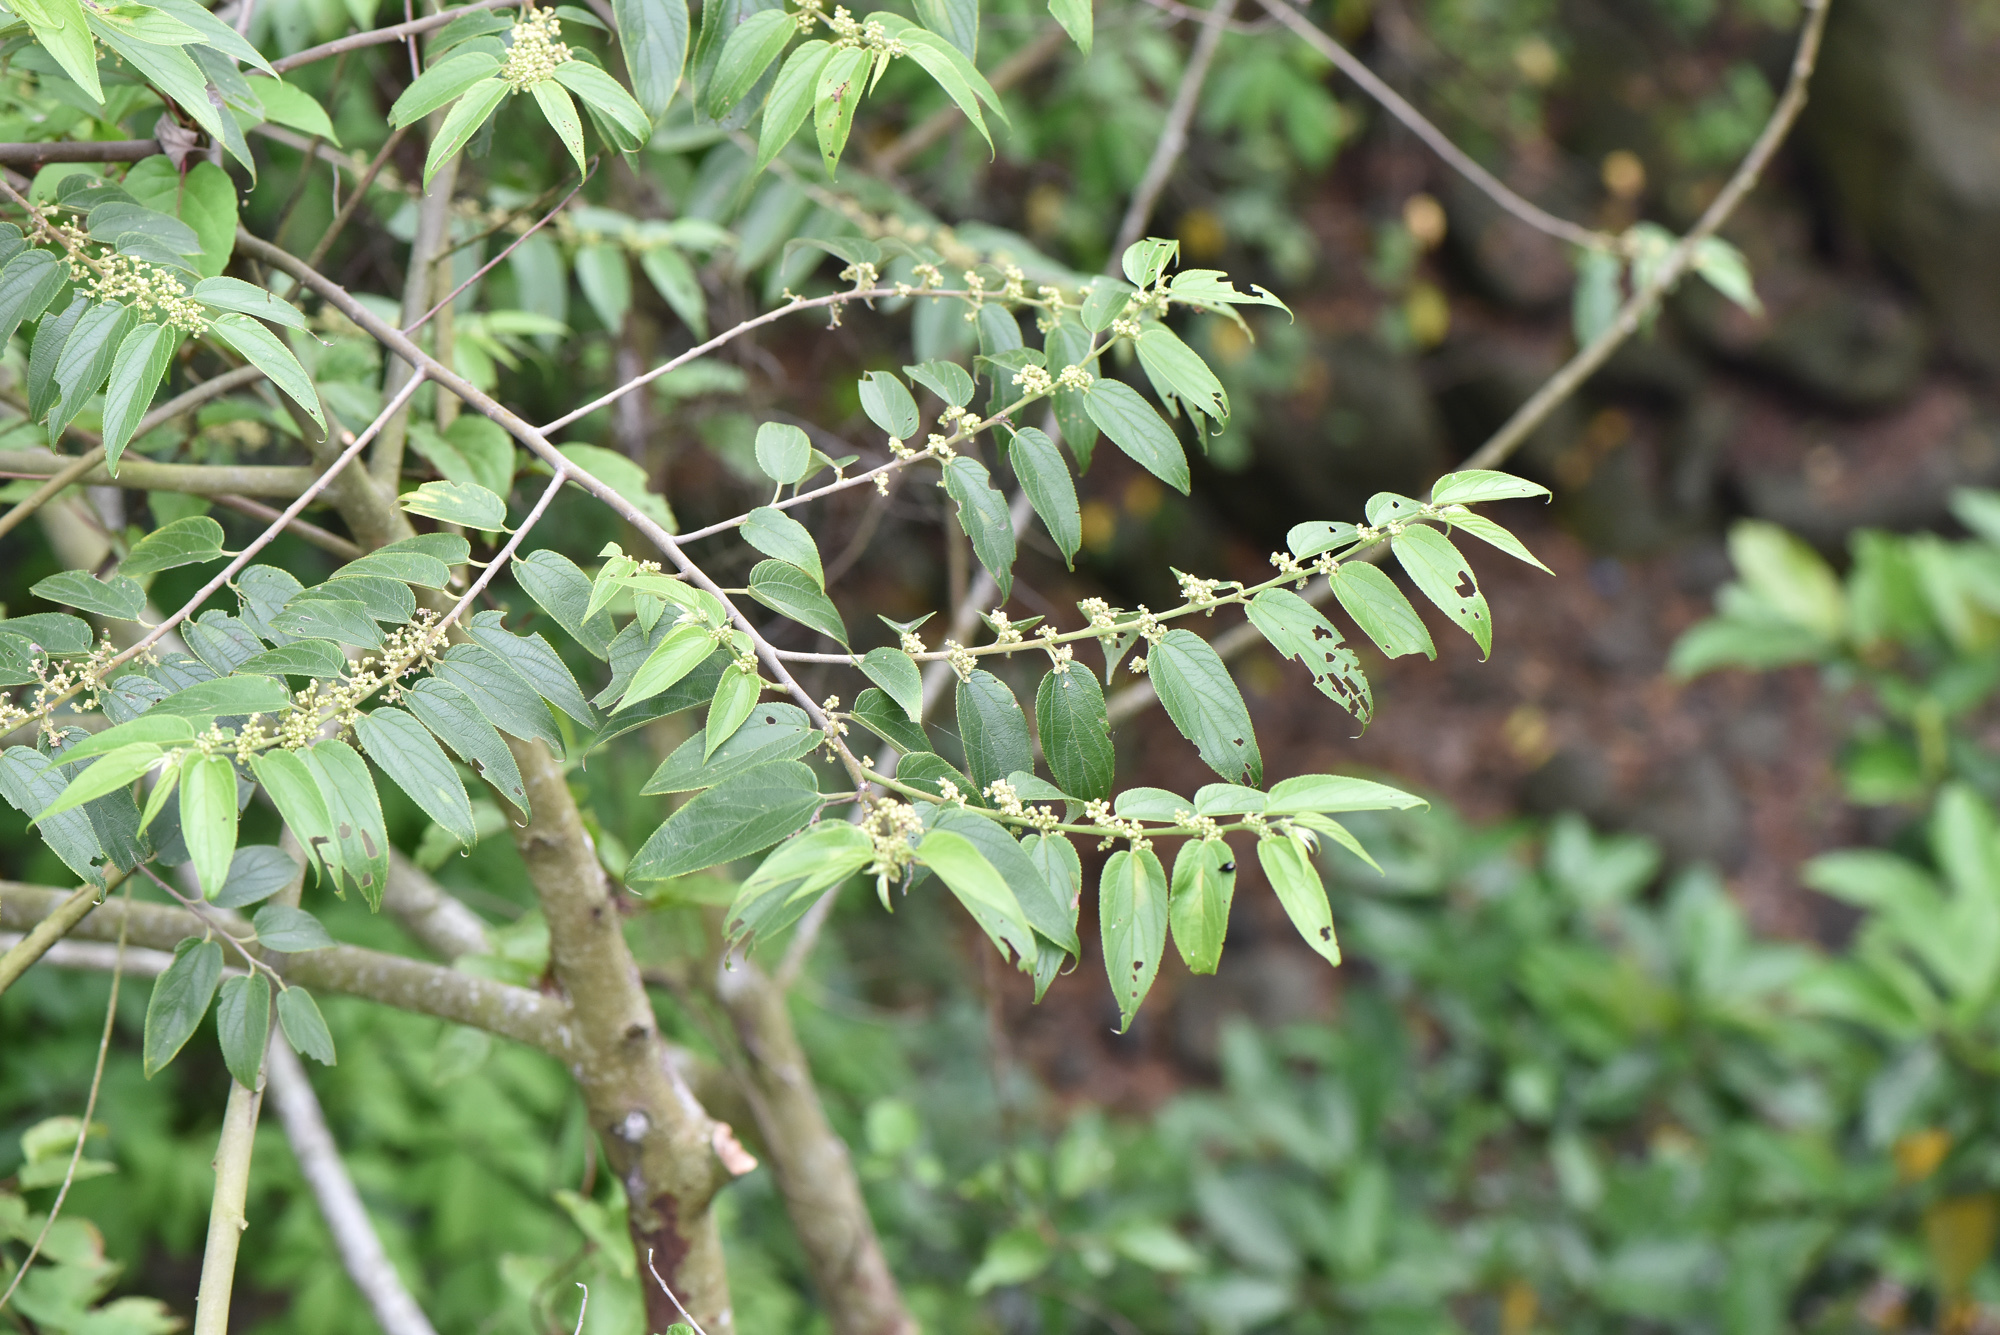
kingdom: Plantae
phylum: Tracheophyta
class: Magnoliopsida
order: Rosales
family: Cannabaceae
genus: Trema
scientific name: Trema orientale
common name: Indian charcoal tree
